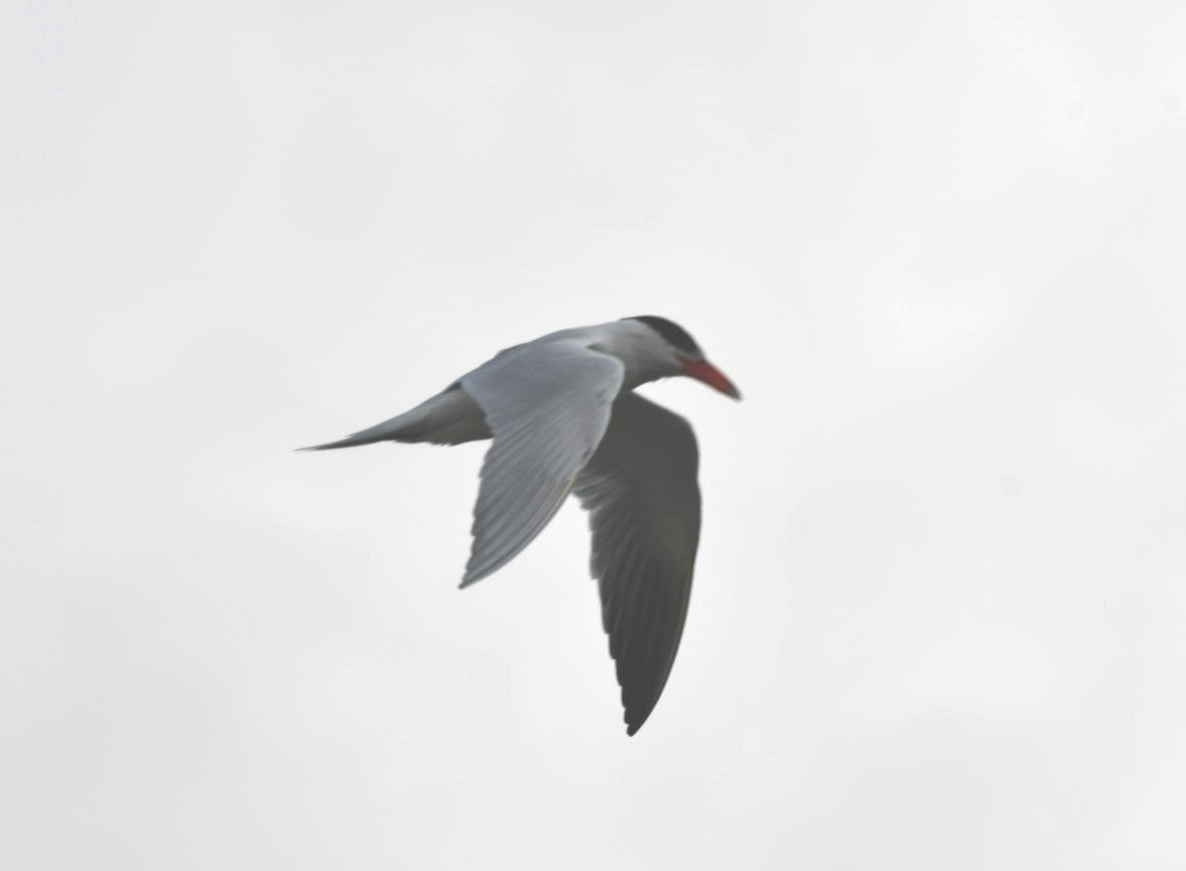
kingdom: Animalia
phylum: Chordata
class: Aves
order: Charadriiformes
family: Laridae
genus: Hydroprogne
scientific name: Hydroprogne caspia
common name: Caspian tern
